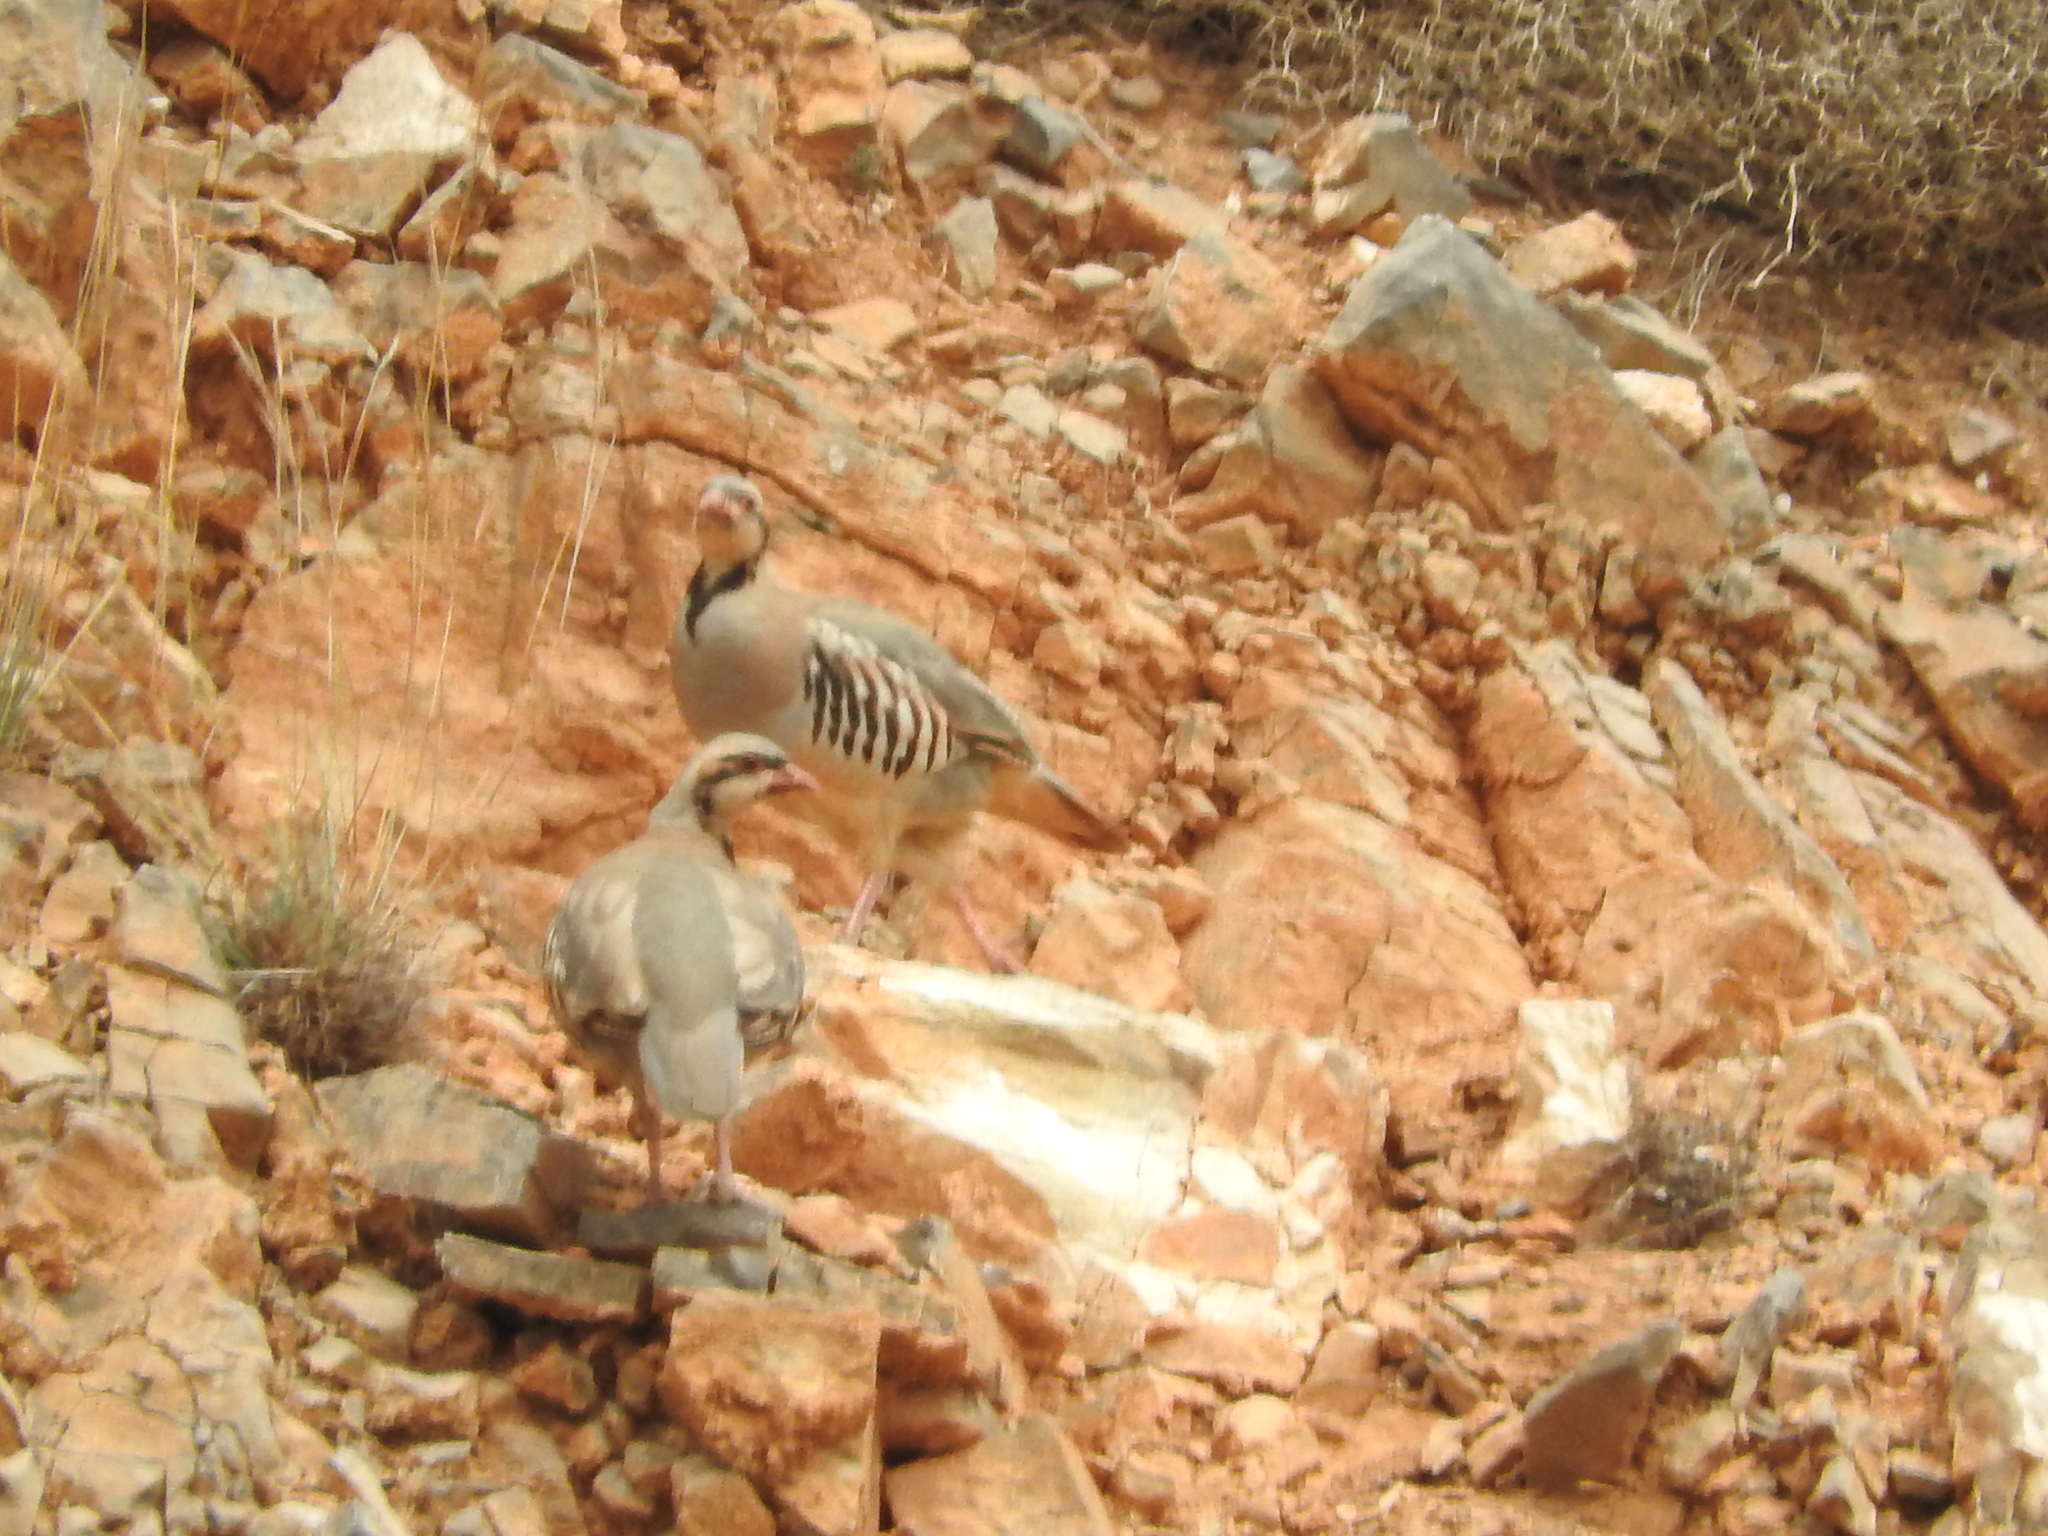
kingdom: Animalia
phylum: Chordata
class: Aves
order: Galliformes
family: Phasianidae
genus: Alectoris
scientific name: Alectoris chukar
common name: Chukar
